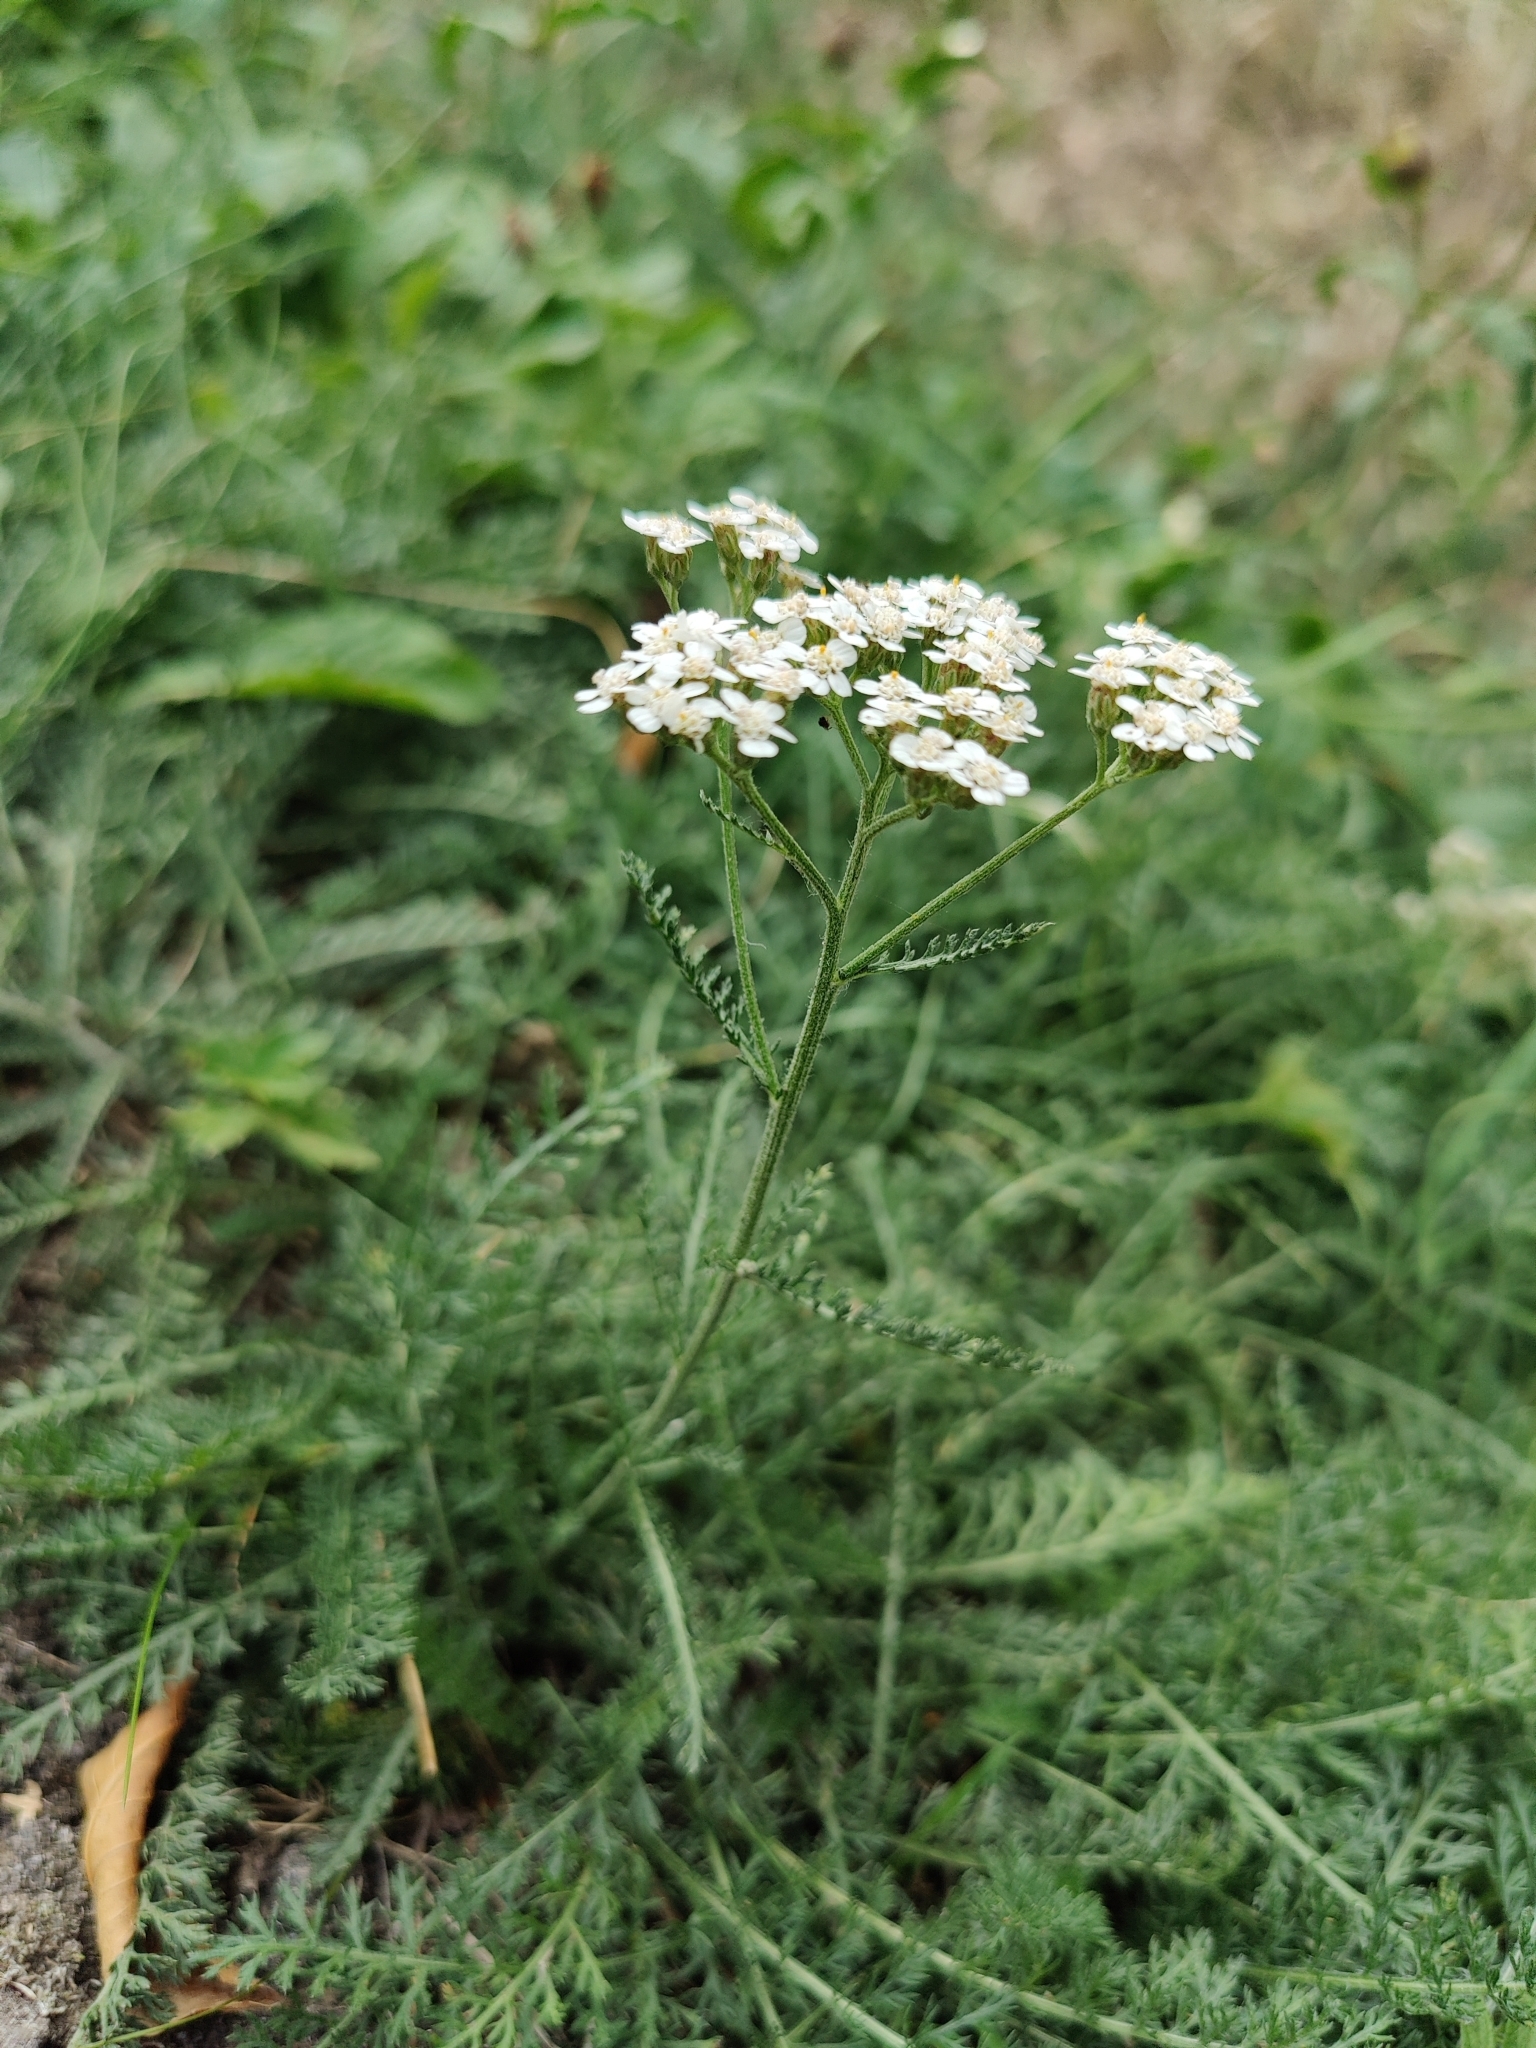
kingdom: Plantae
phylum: Tracheophyta
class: Magnoliopsida
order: Asterales
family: Asteraceae
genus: Achillea
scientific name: Achillea millefolium
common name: Yarrow
